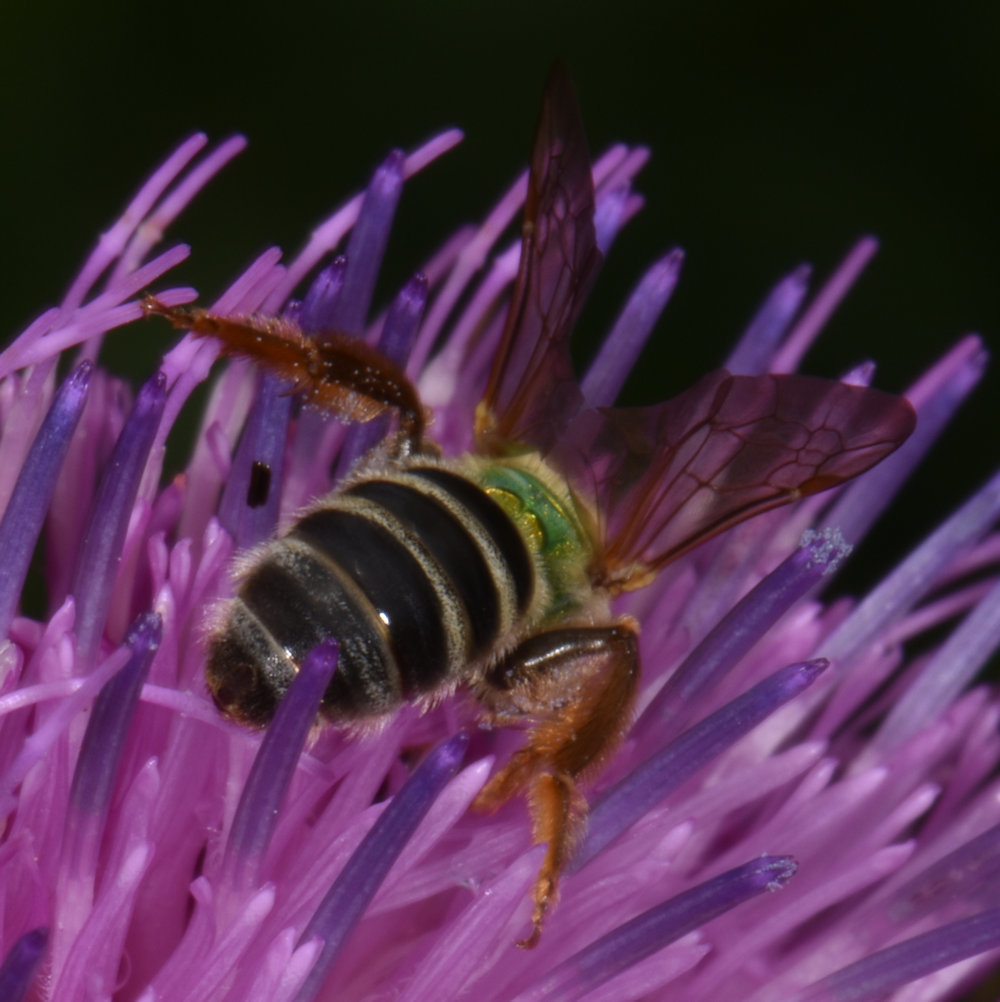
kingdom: Animalia
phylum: Arthropoda
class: Insecta
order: Hymenoptera
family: Halictidae
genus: Agapostemon
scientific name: Agapostemon virescens
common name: Bicolored striped sweat bee
